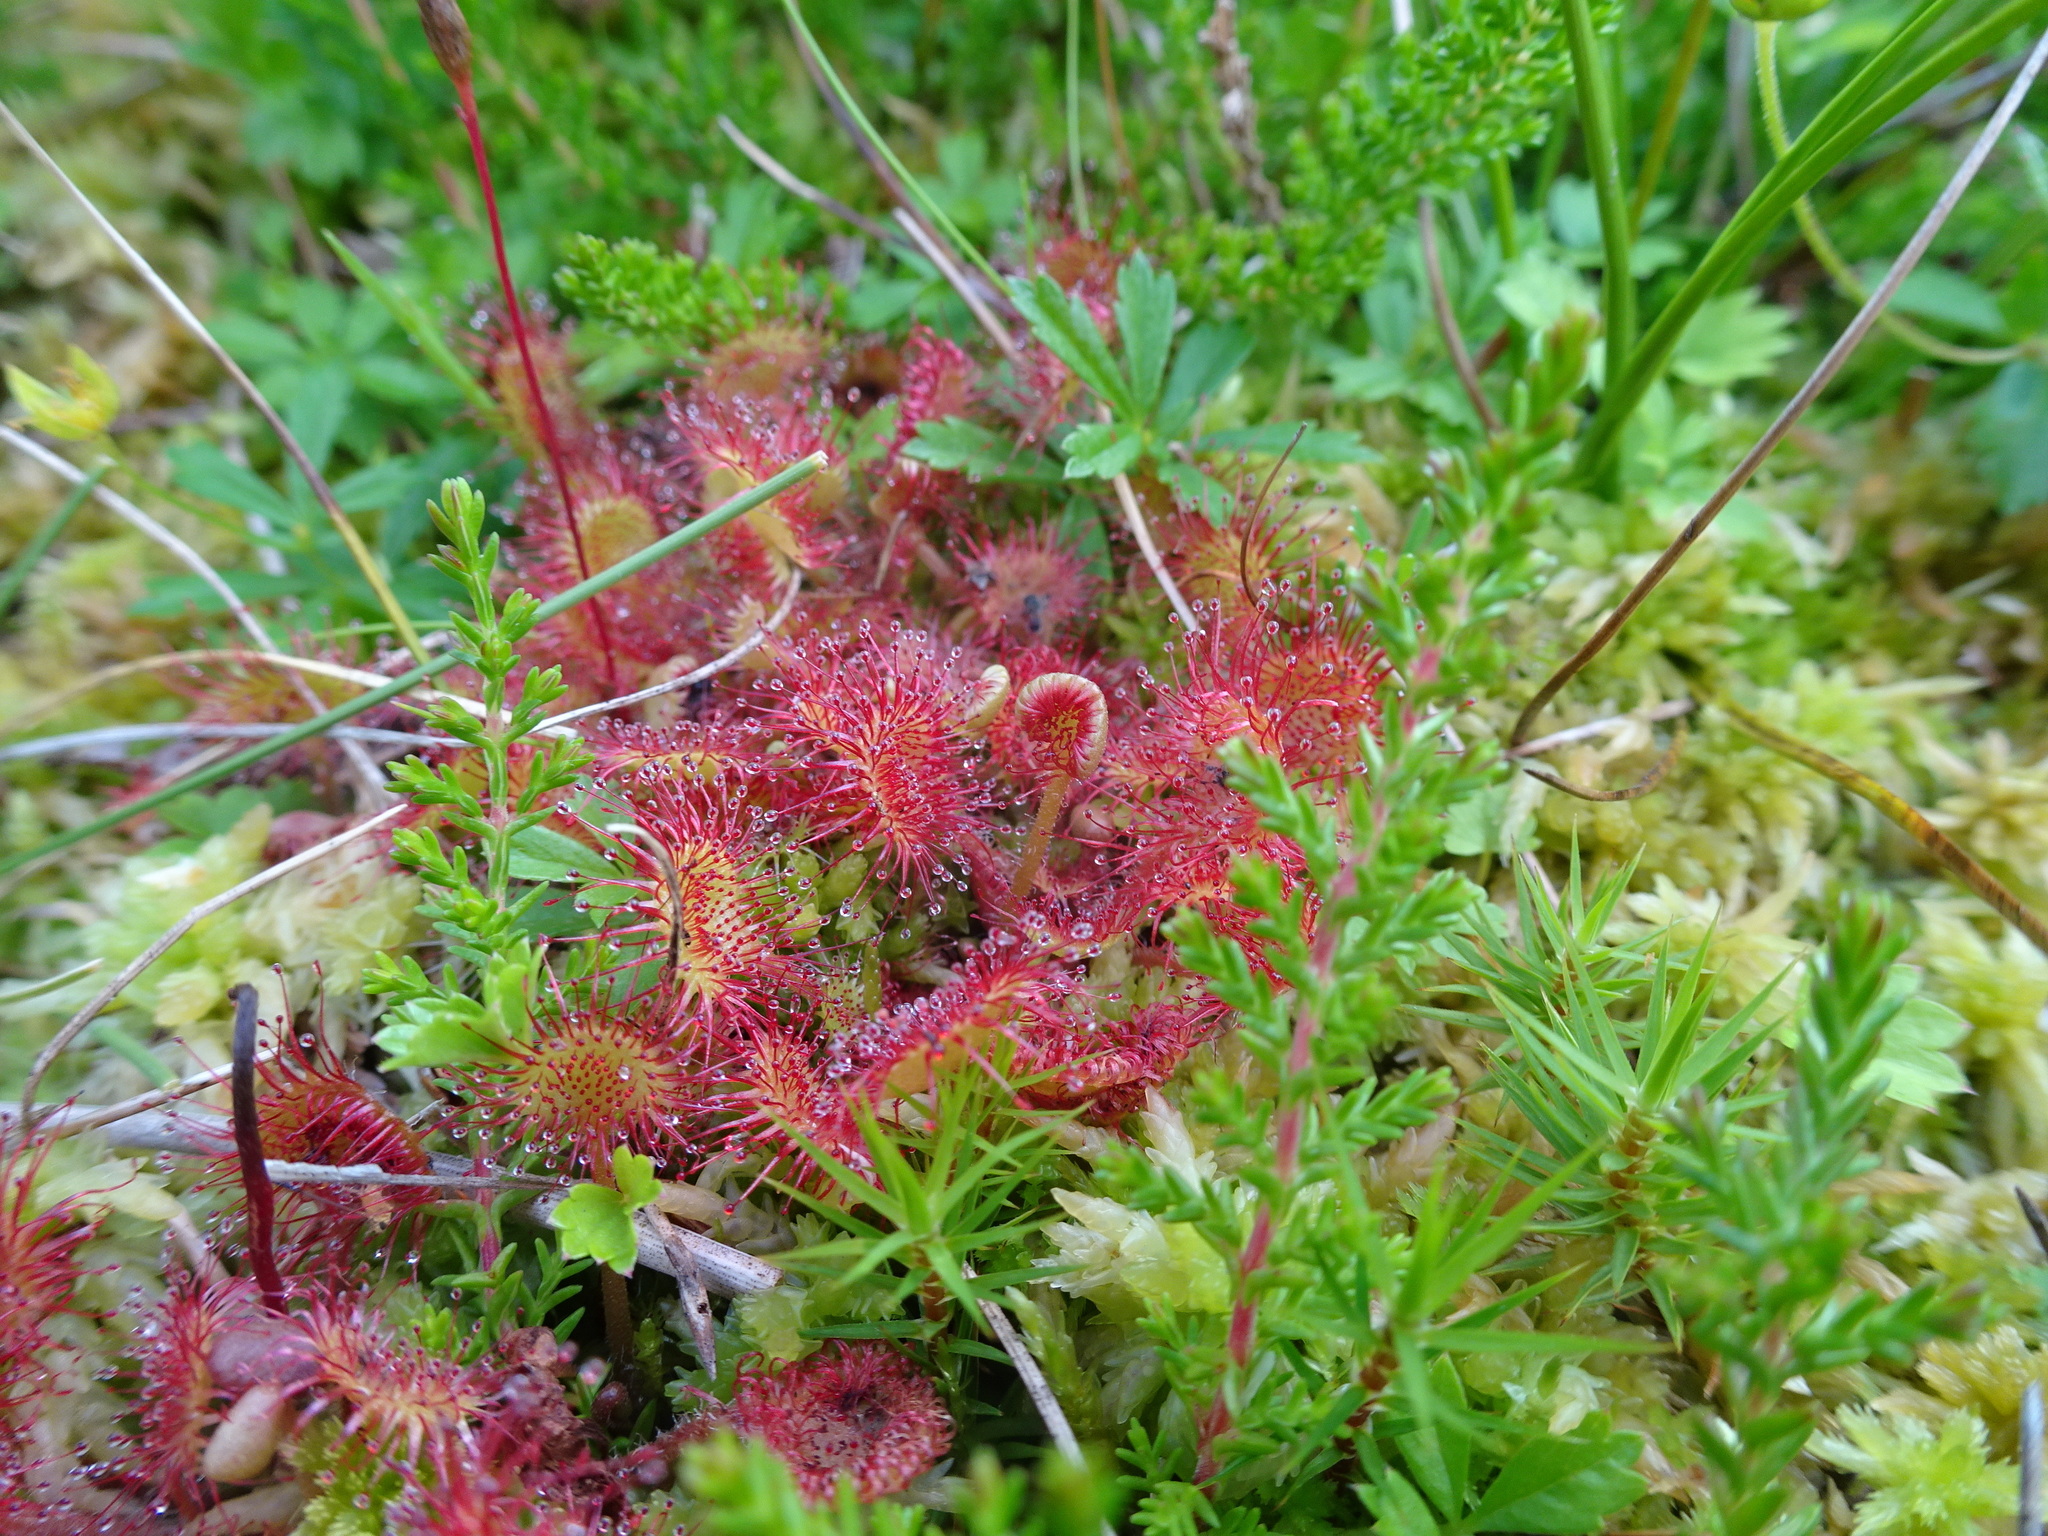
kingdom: Plantae
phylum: Tracheophyta
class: Magnoliopsida
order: Caryophyllales
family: Droseraceae
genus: Drosera
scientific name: Drosera rotundifolia
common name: Round-leaved sundew
